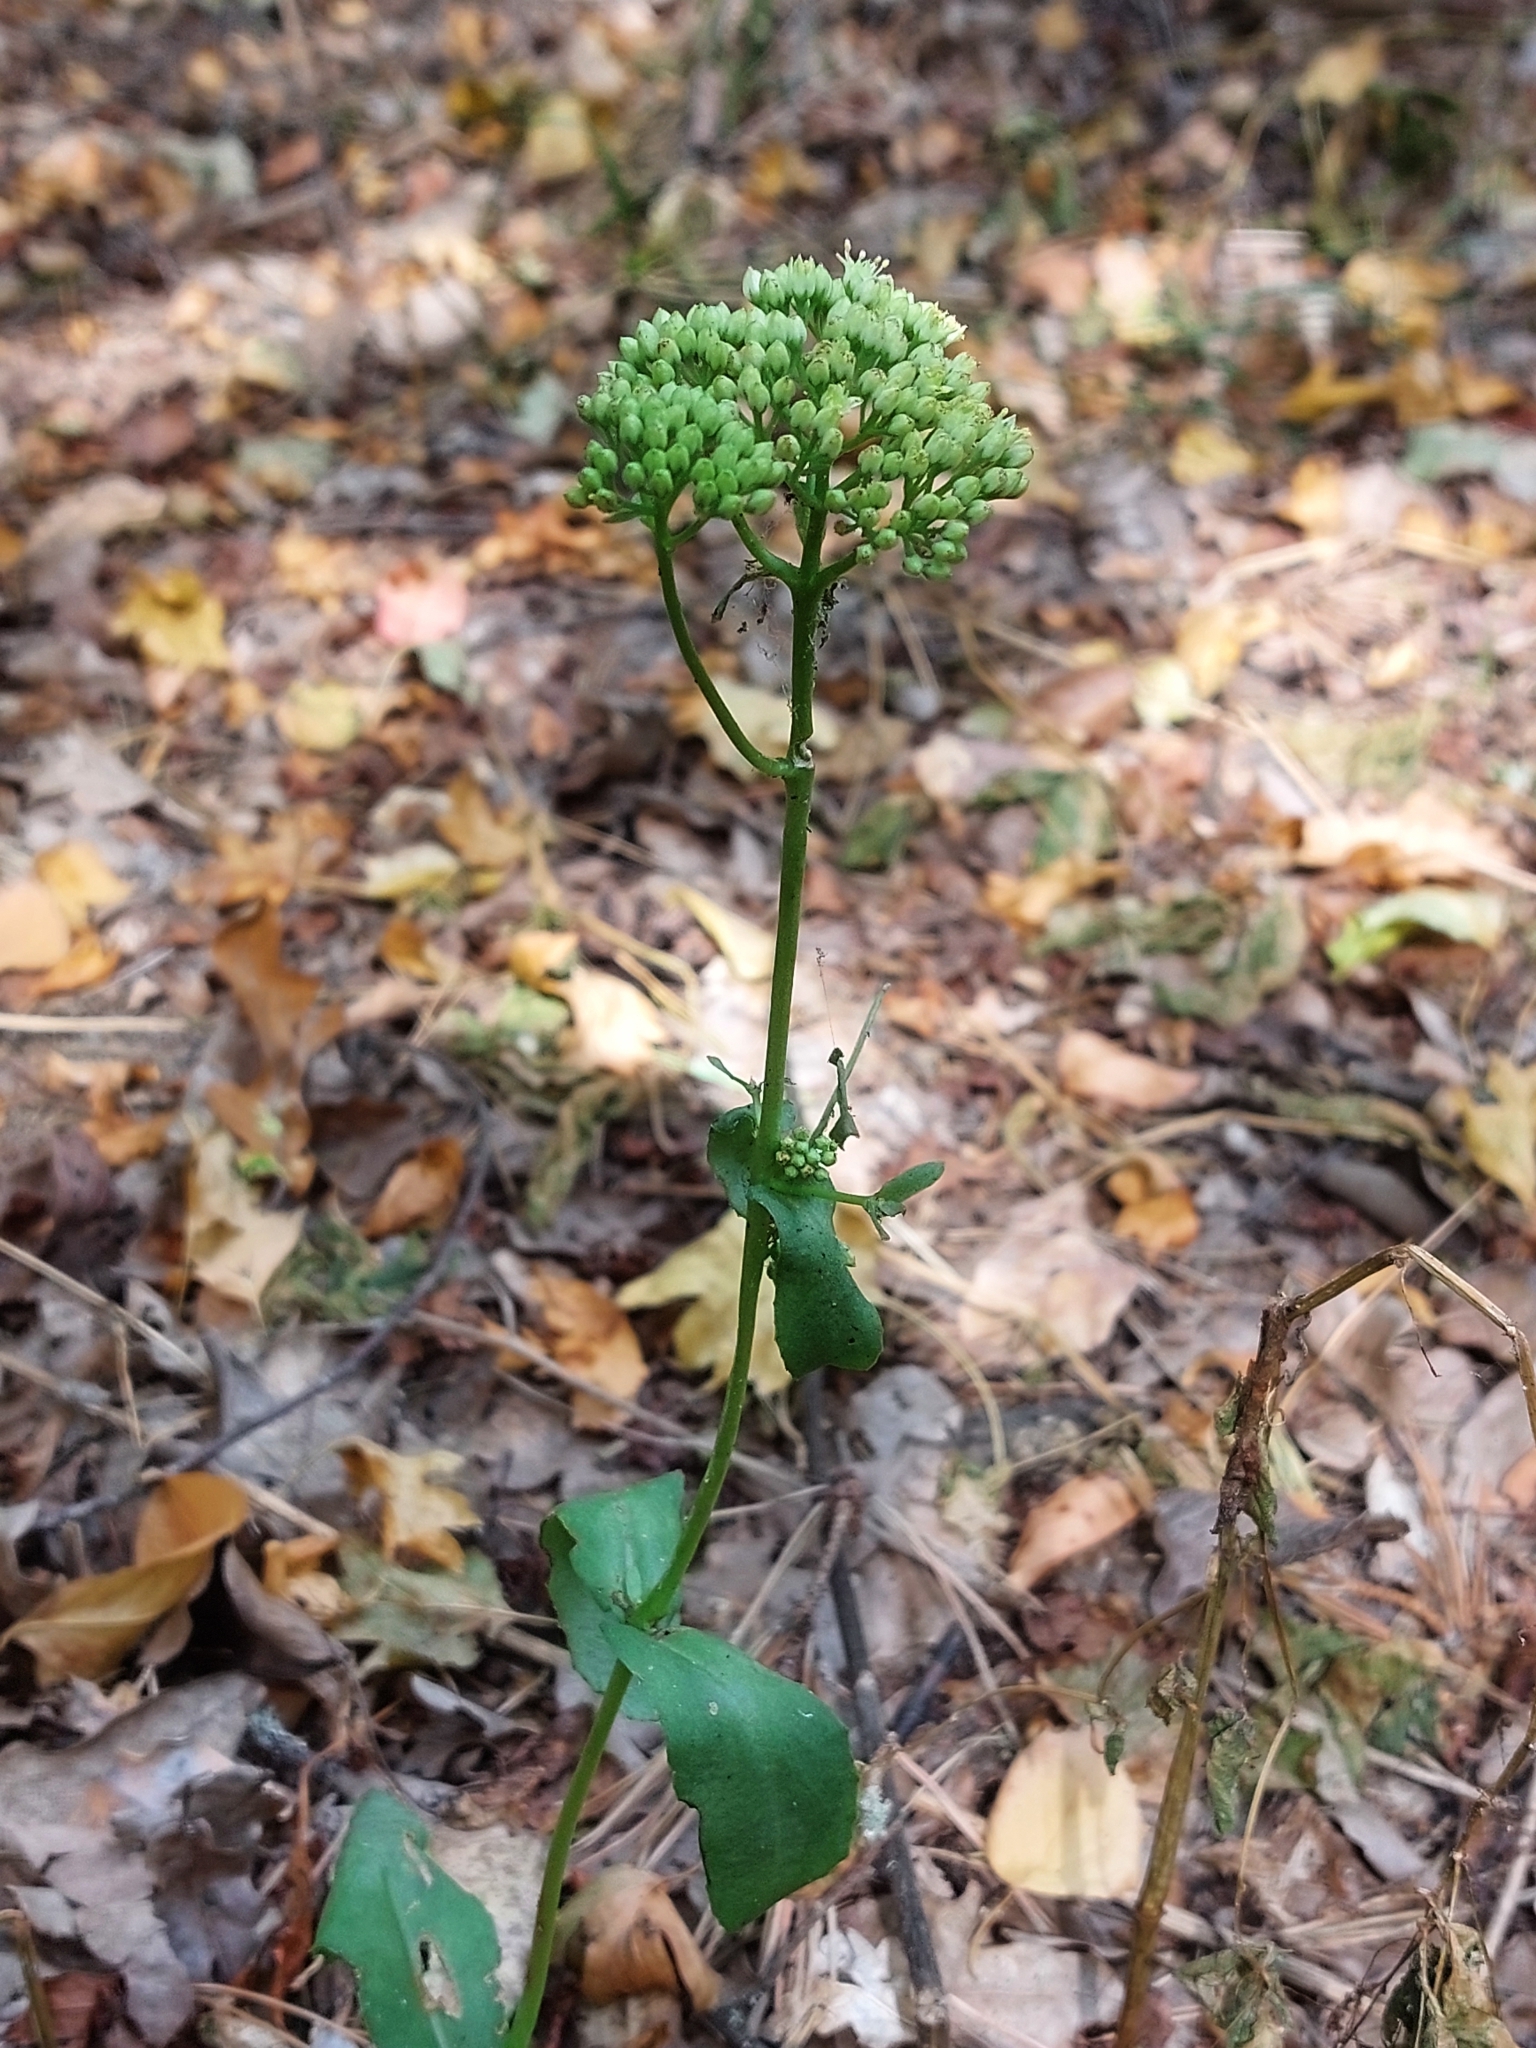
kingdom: Plantae
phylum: Tracheophyta
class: Magnoliopsida
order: Saxifragales
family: Crassulaceae
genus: Hylotelephium
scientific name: Hylotelephium maximum
